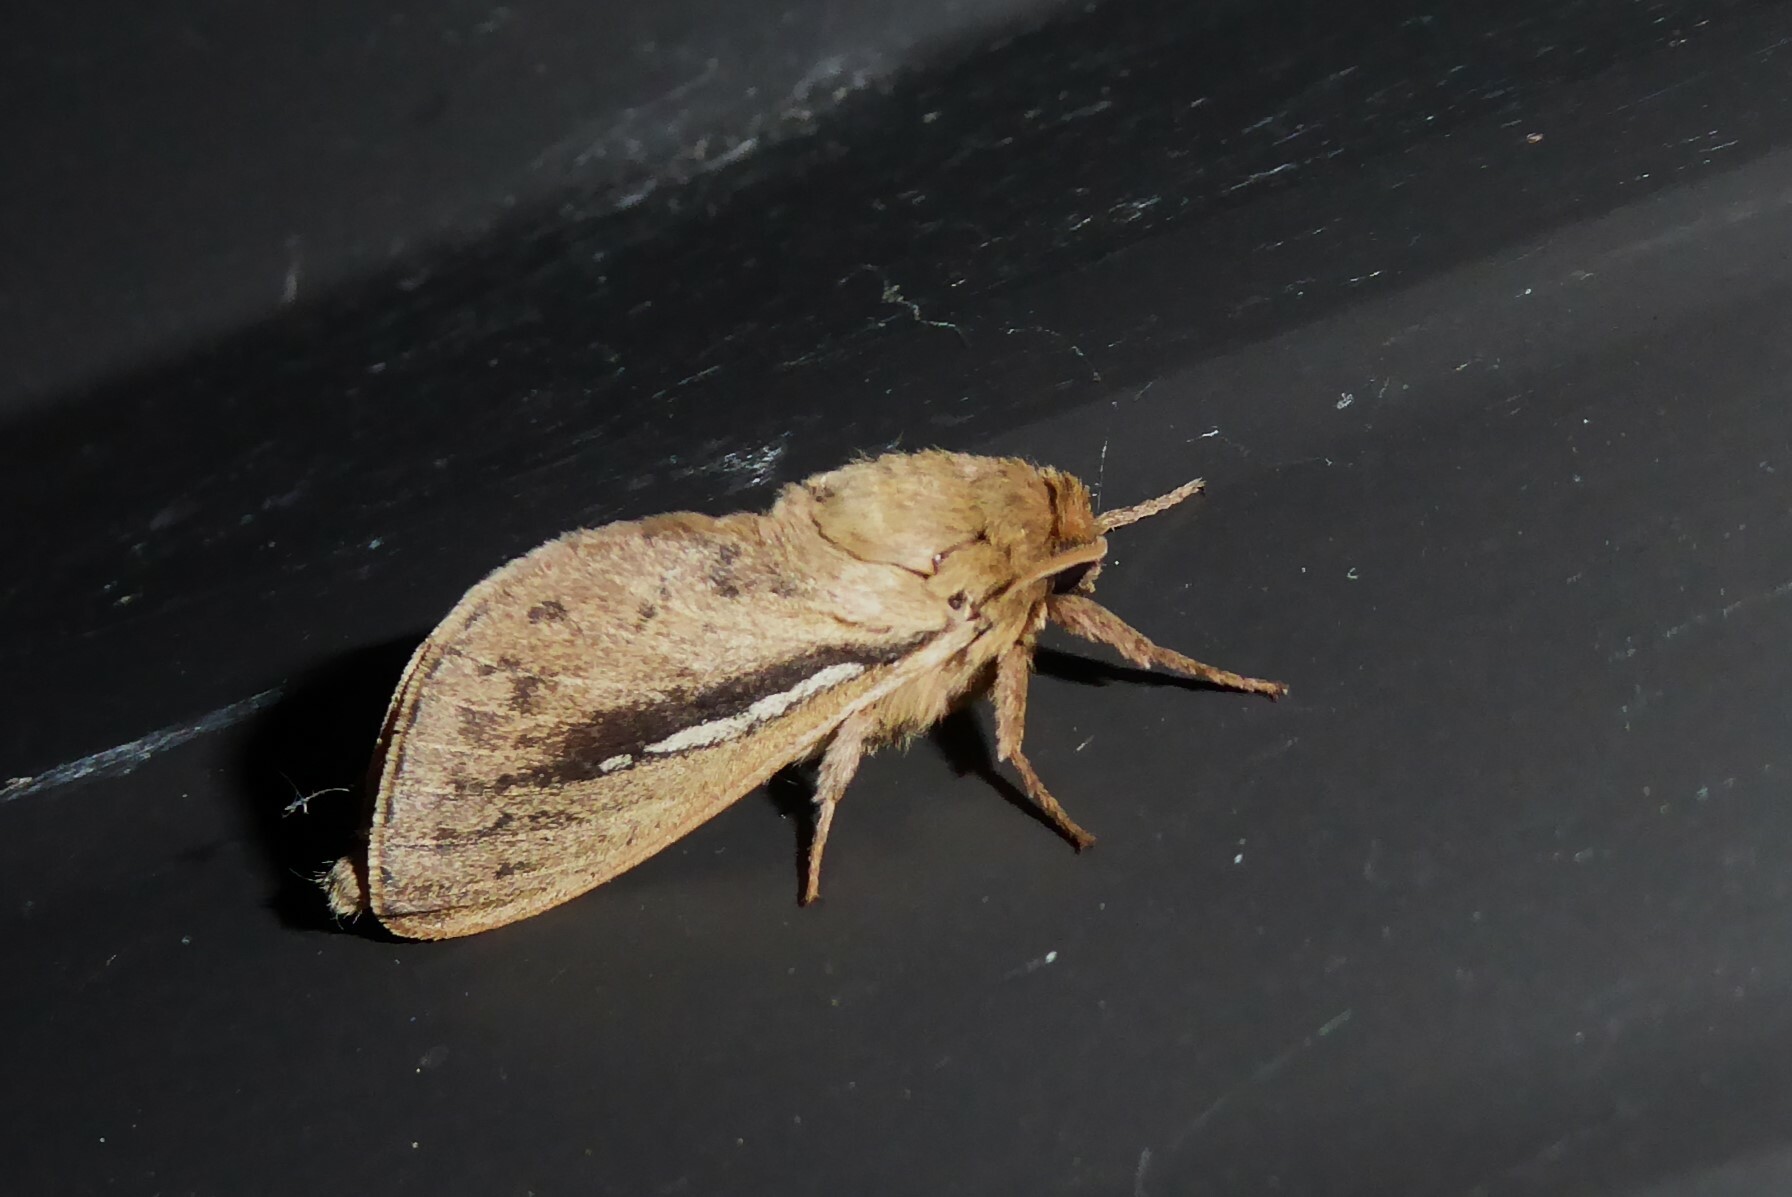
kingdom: Animalia
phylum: Arthropoda
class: Insecta
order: Lepidoptera
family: Hepialidae
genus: Wiseana
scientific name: Wiseana umbraculatus
